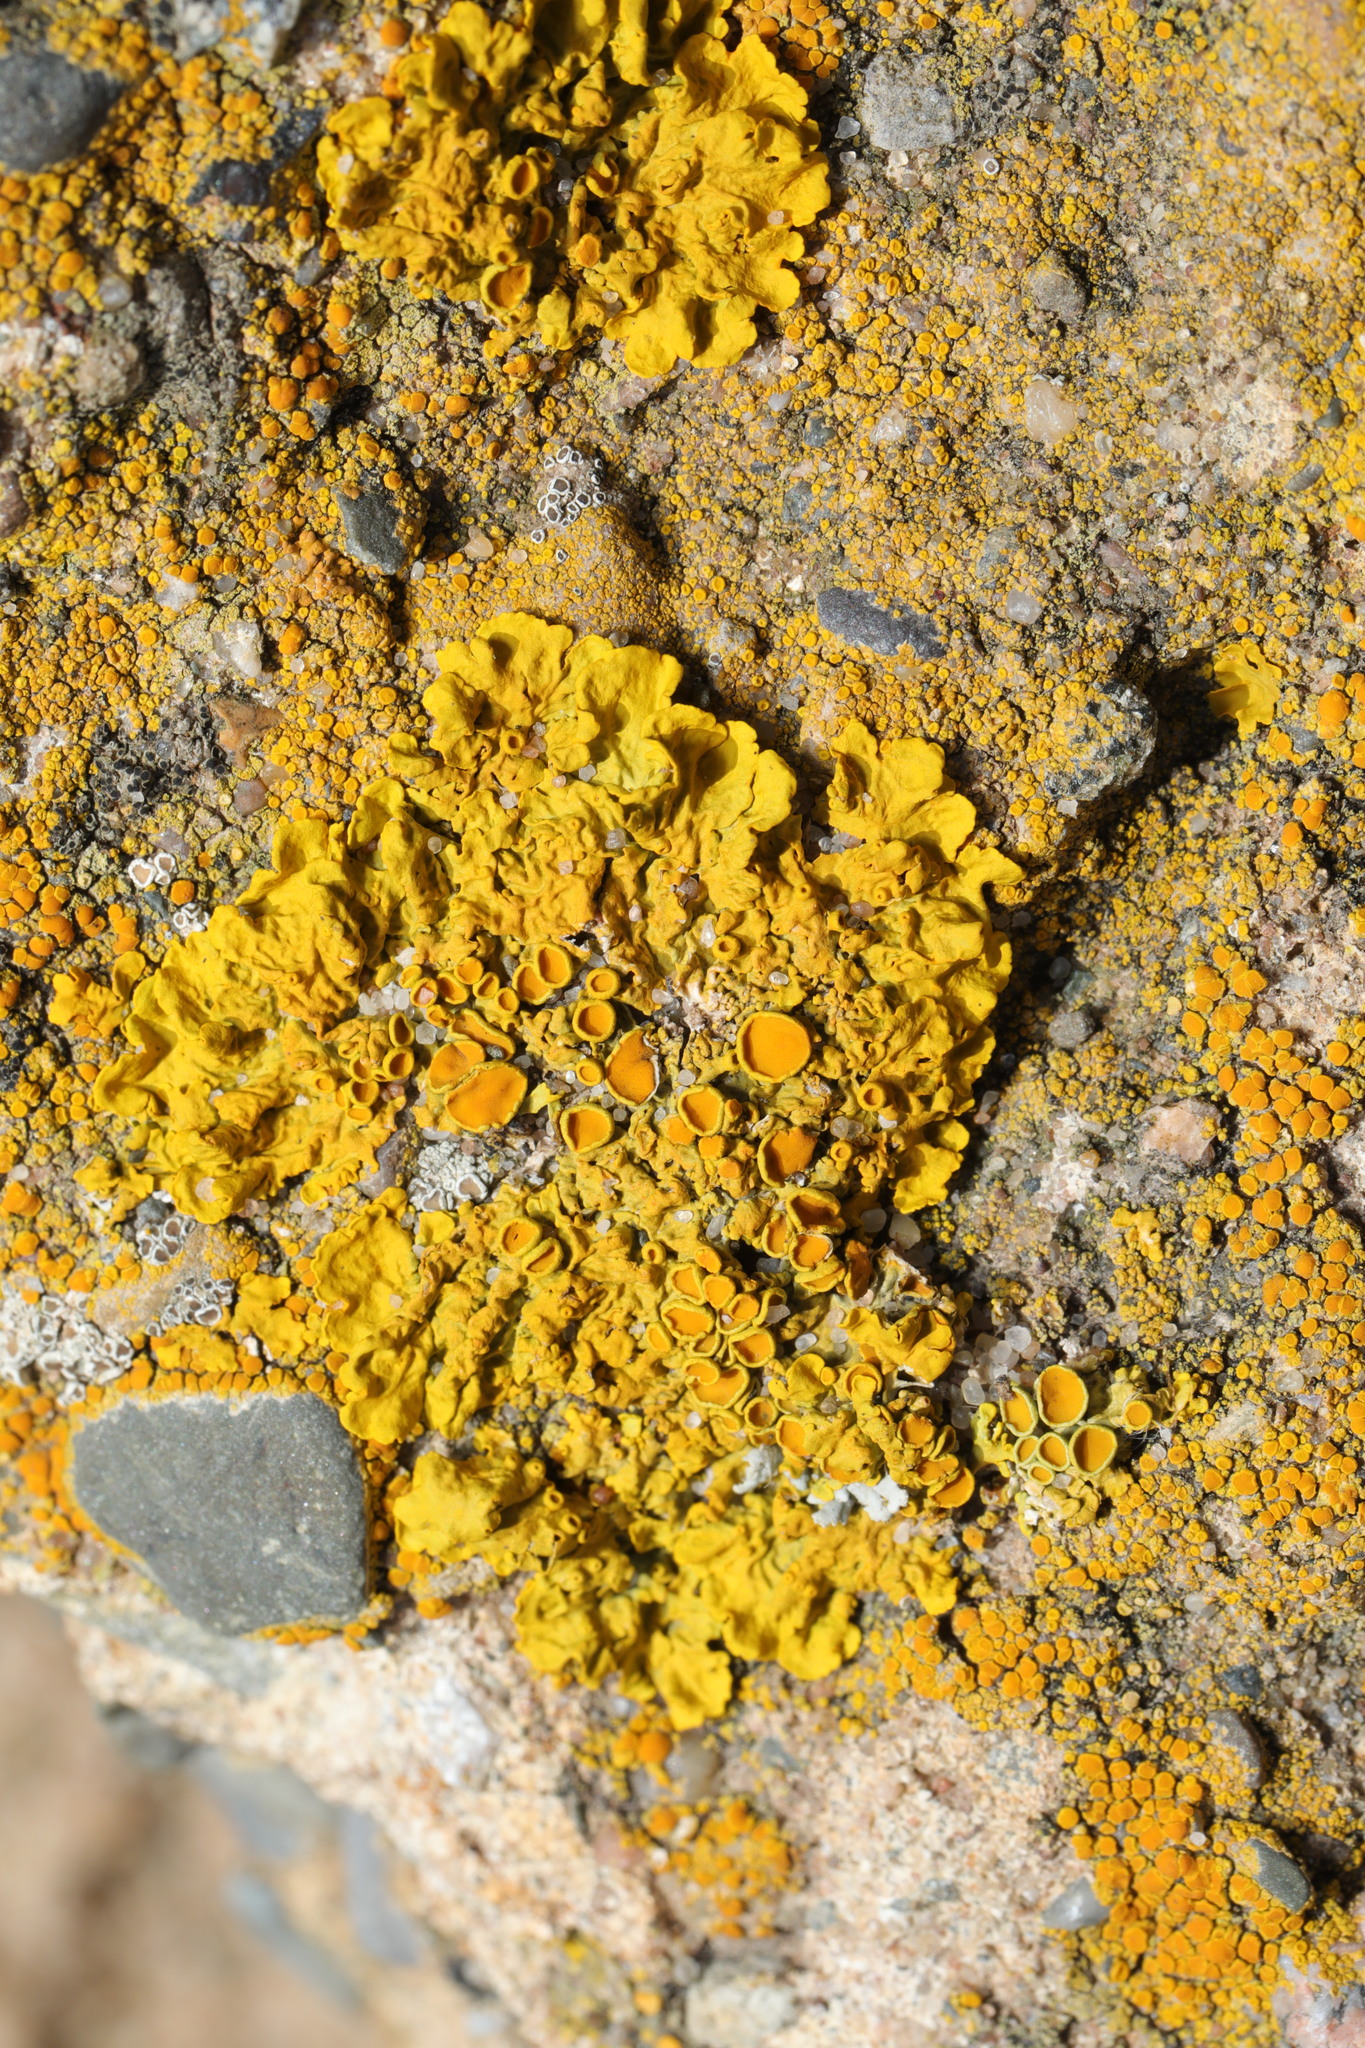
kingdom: Fungi
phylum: Ascomycota
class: Lecanoromycetes
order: Teloschistales
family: Teloschistaceae
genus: Xanthoria
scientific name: Xanthoria parietina
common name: Common orange lichen
